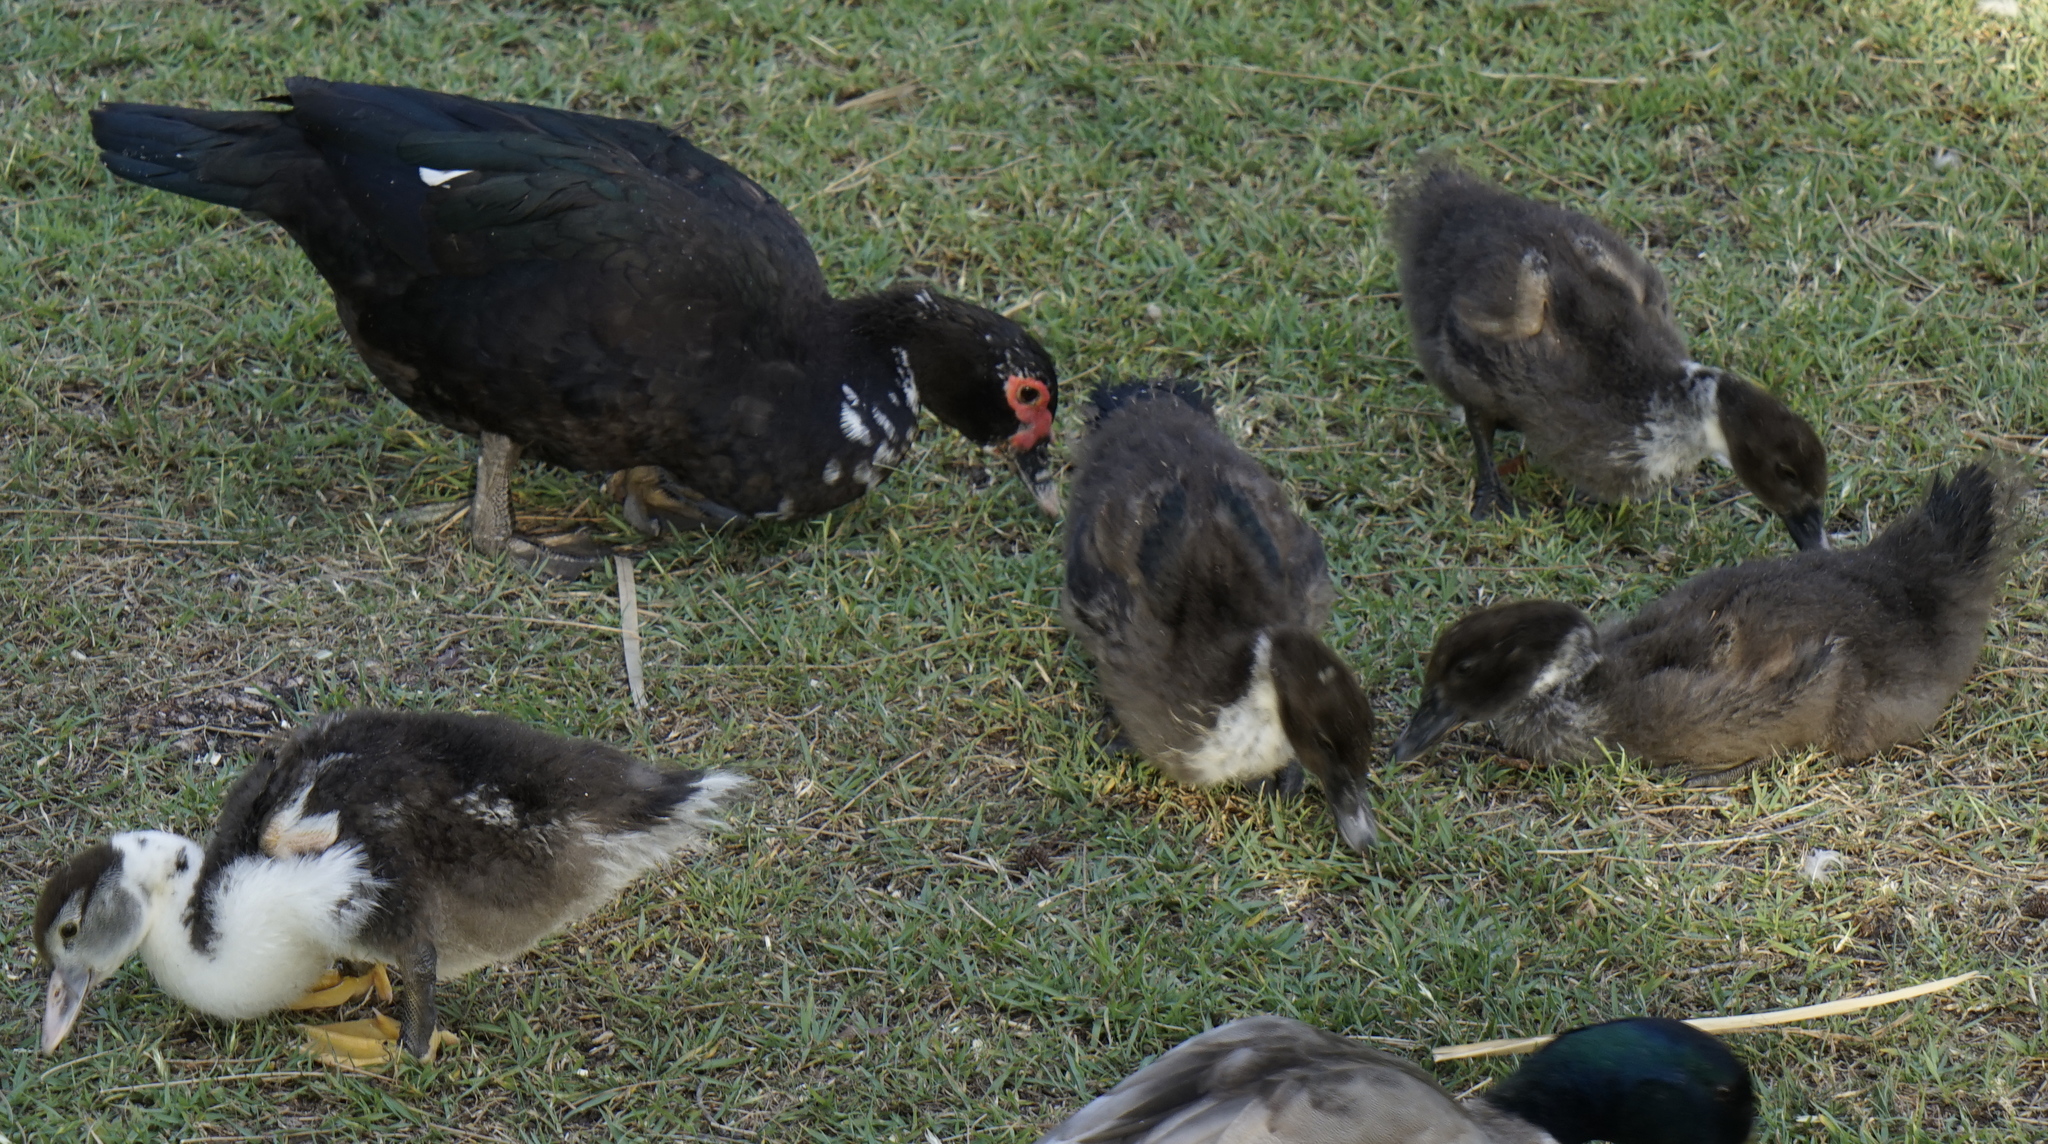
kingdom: Animalia
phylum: Chordata
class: Aves
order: Anseriformes
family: Anatidae
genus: Cairina
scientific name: Cairina moschata
